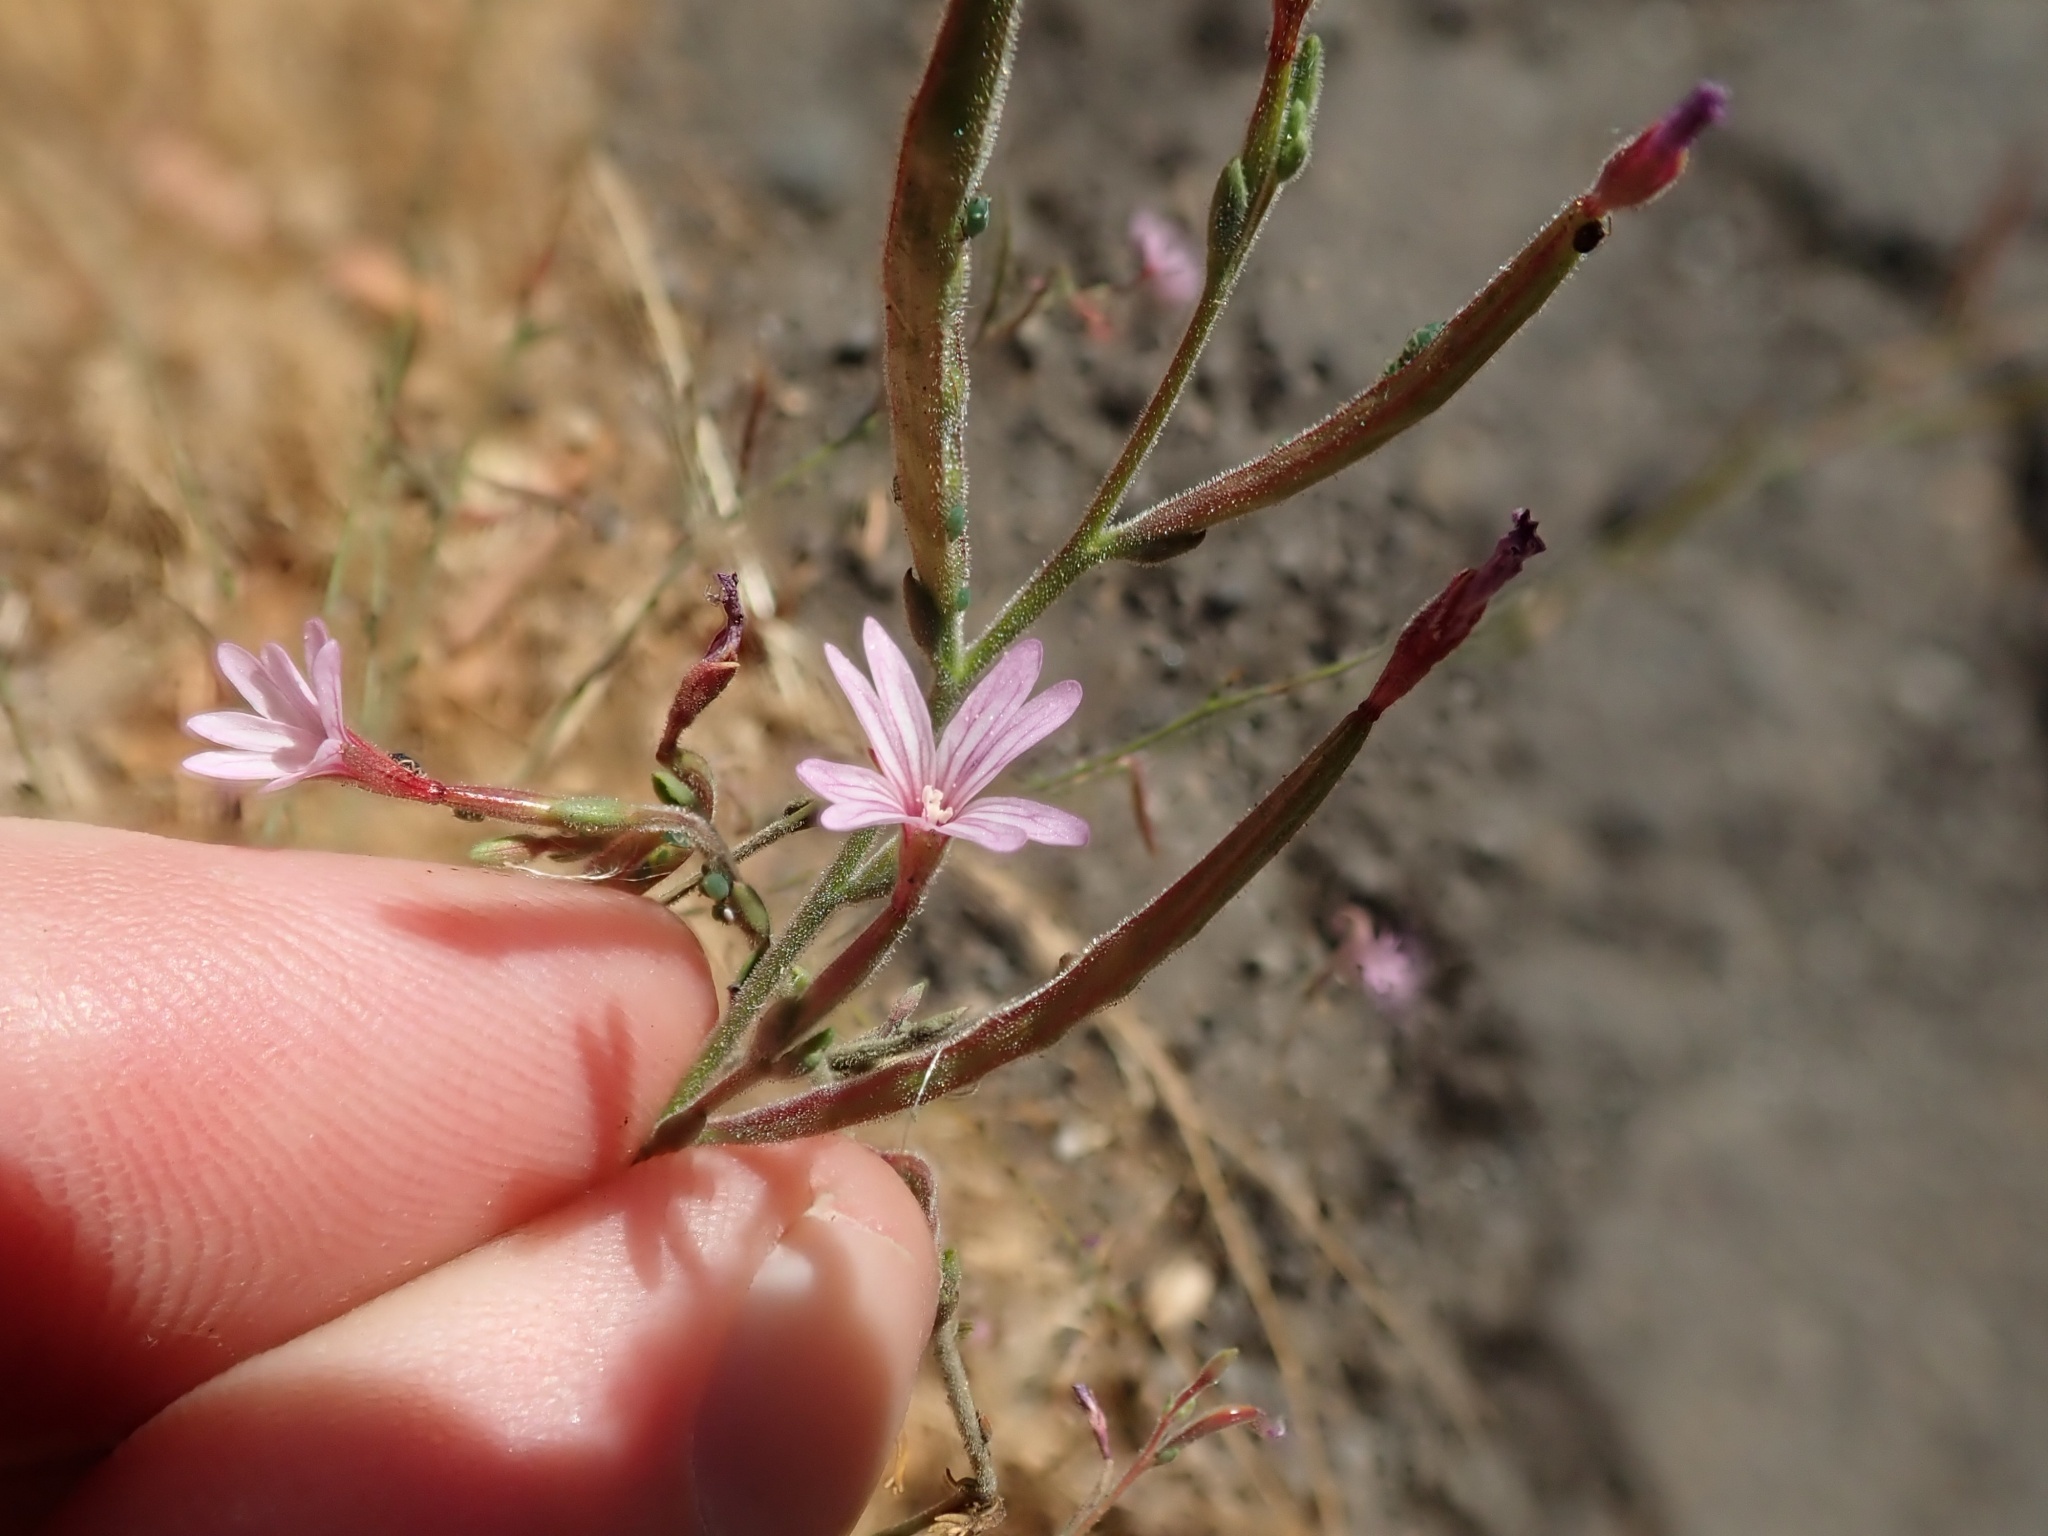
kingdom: Plantae
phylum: Tracheophyta
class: Magnoliopsida
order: Myrtales
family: Onagraceae
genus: Epilobium
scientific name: Epilobium brachycarpum
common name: Annual willowherb
